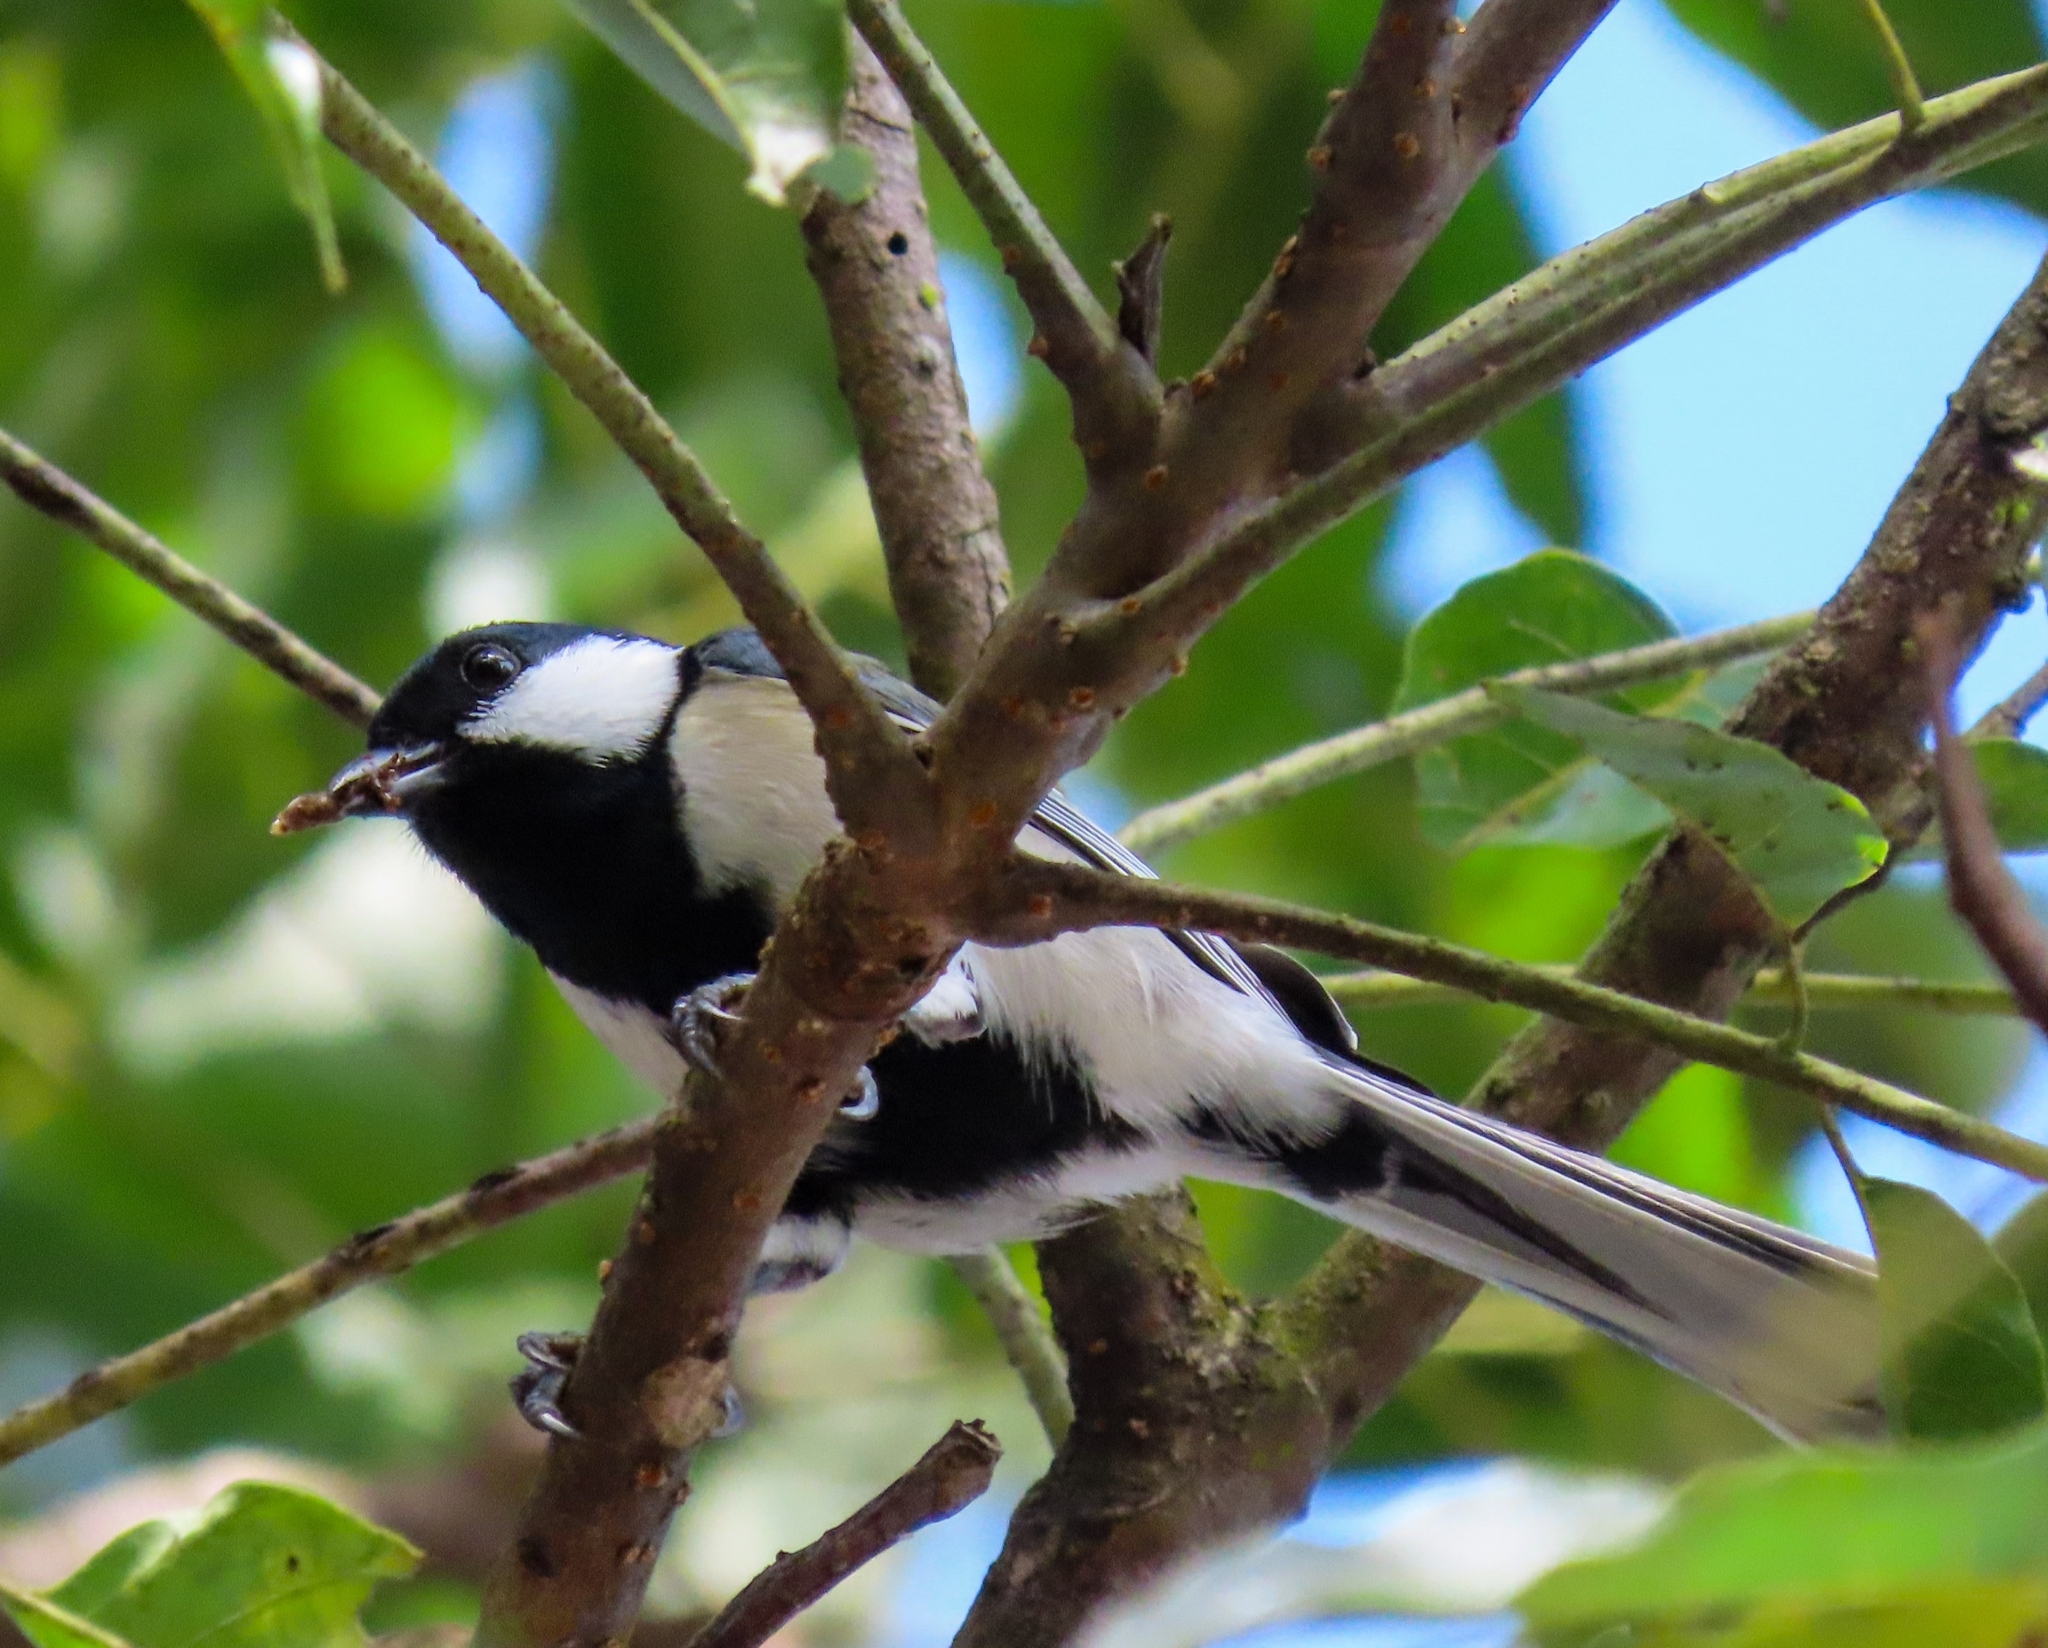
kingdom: Animalia
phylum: Chordata
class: Aves
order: Passeriformes
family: Paridae
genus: Parus
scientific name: Parus minor
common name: Japanese tit
